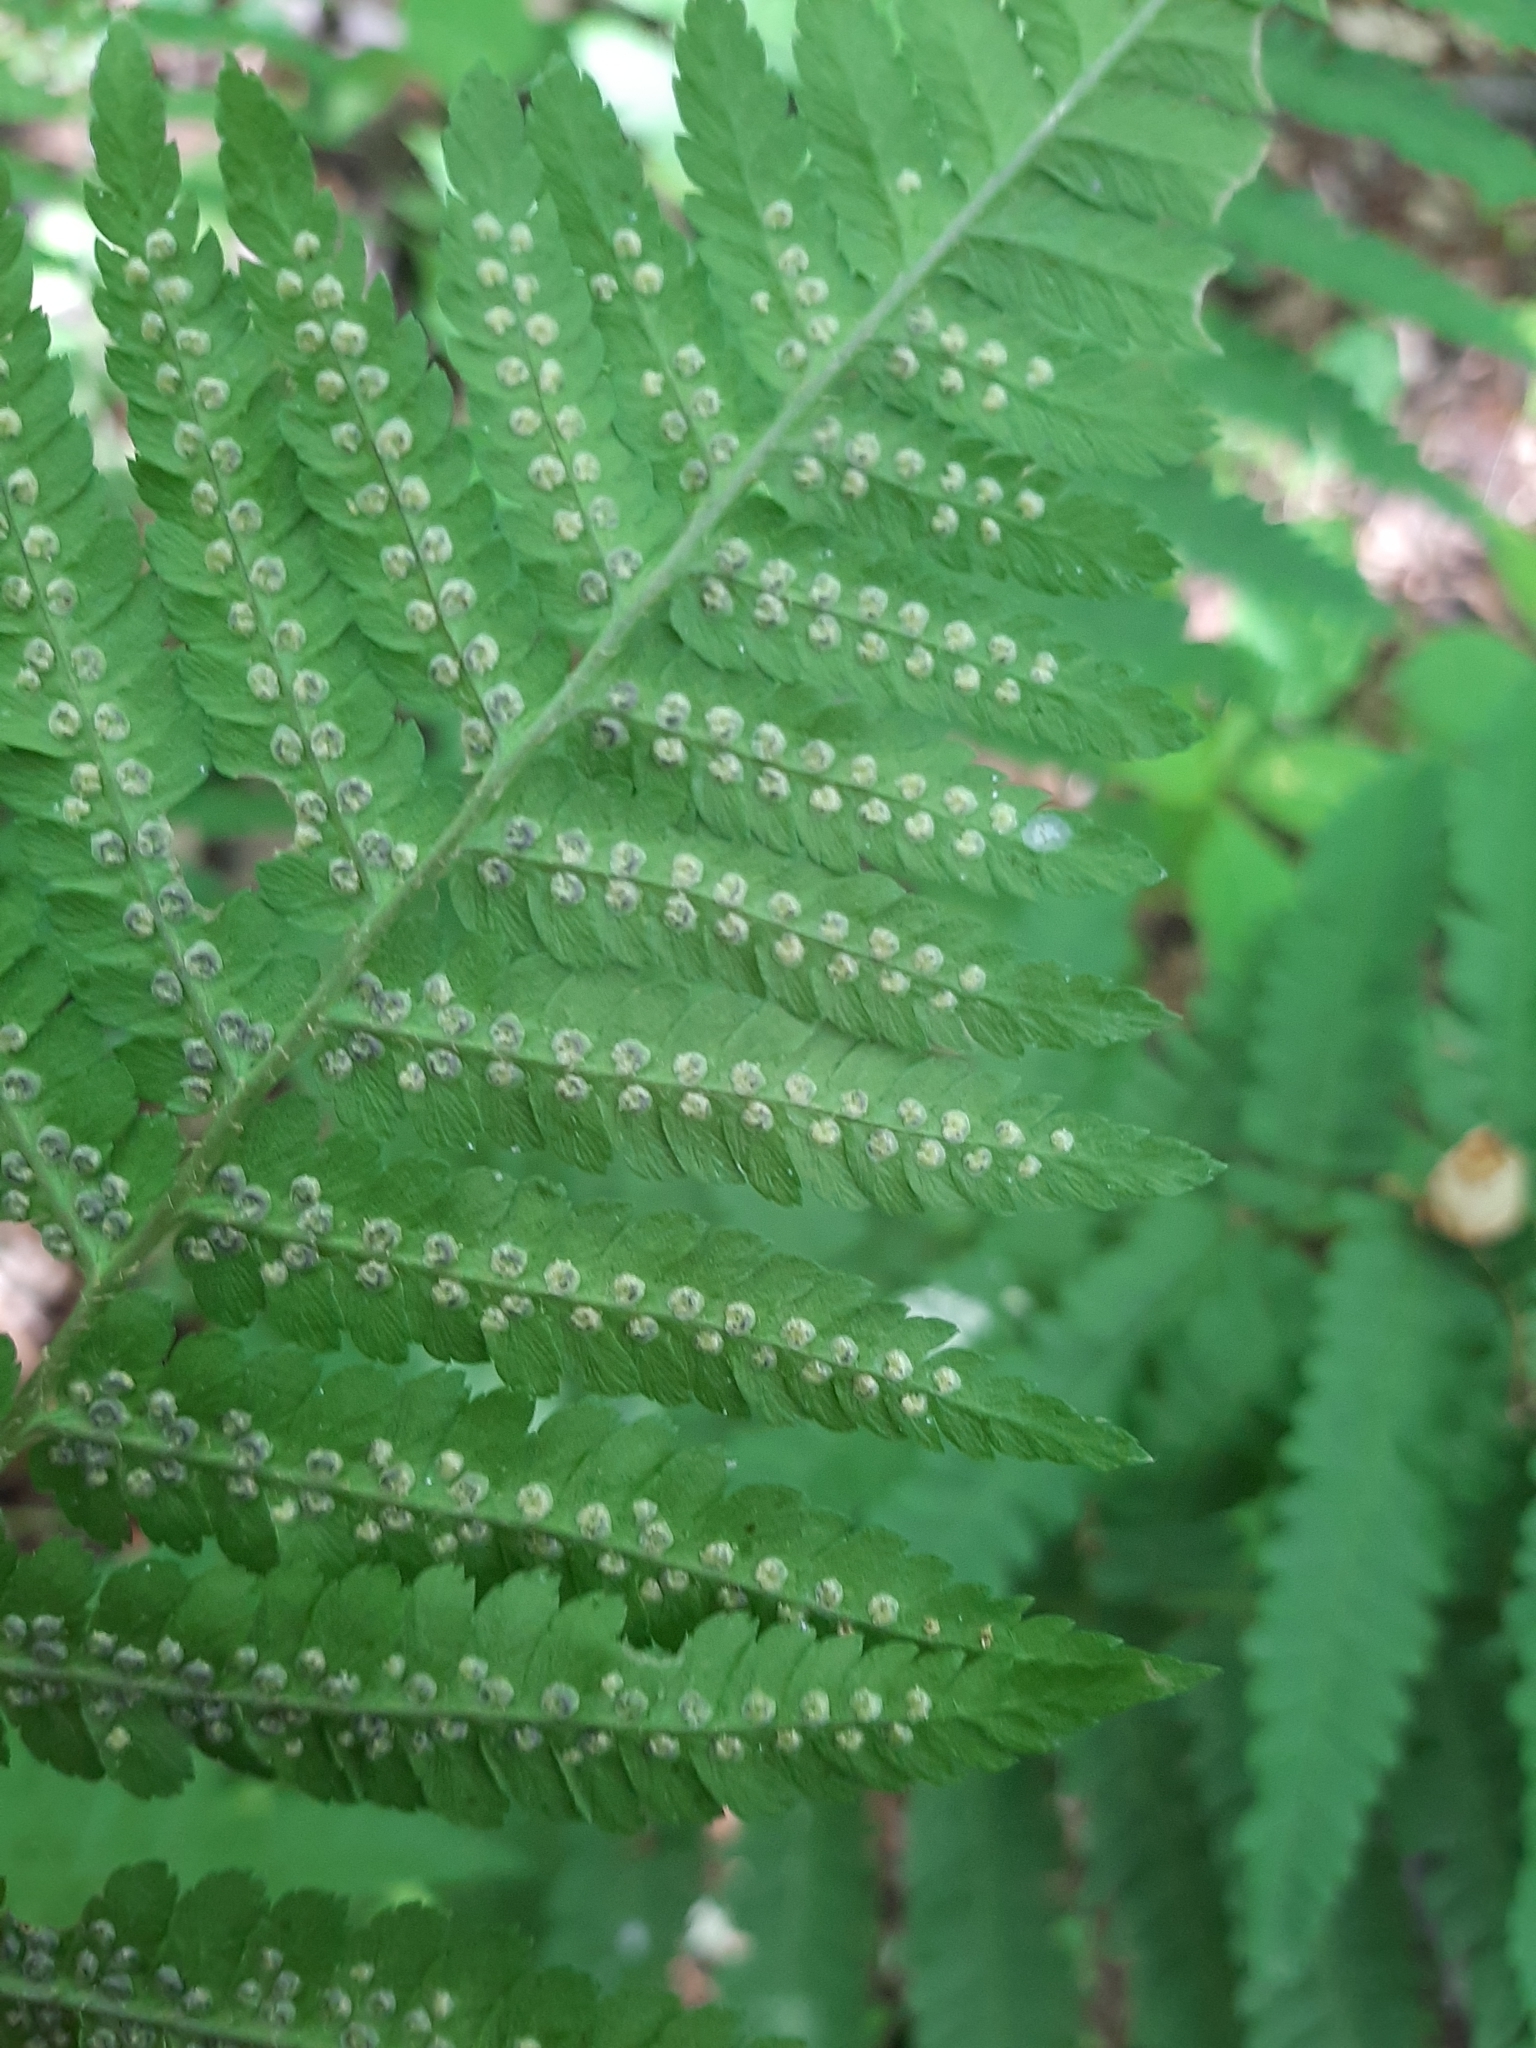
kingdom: Plantae
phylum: Tracheophyta
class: Polypodiopsida
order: Polypodiales
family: Dryopteridaceae
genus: Dryopteris
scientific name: Dryopteris filix-mas
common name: Male fern
